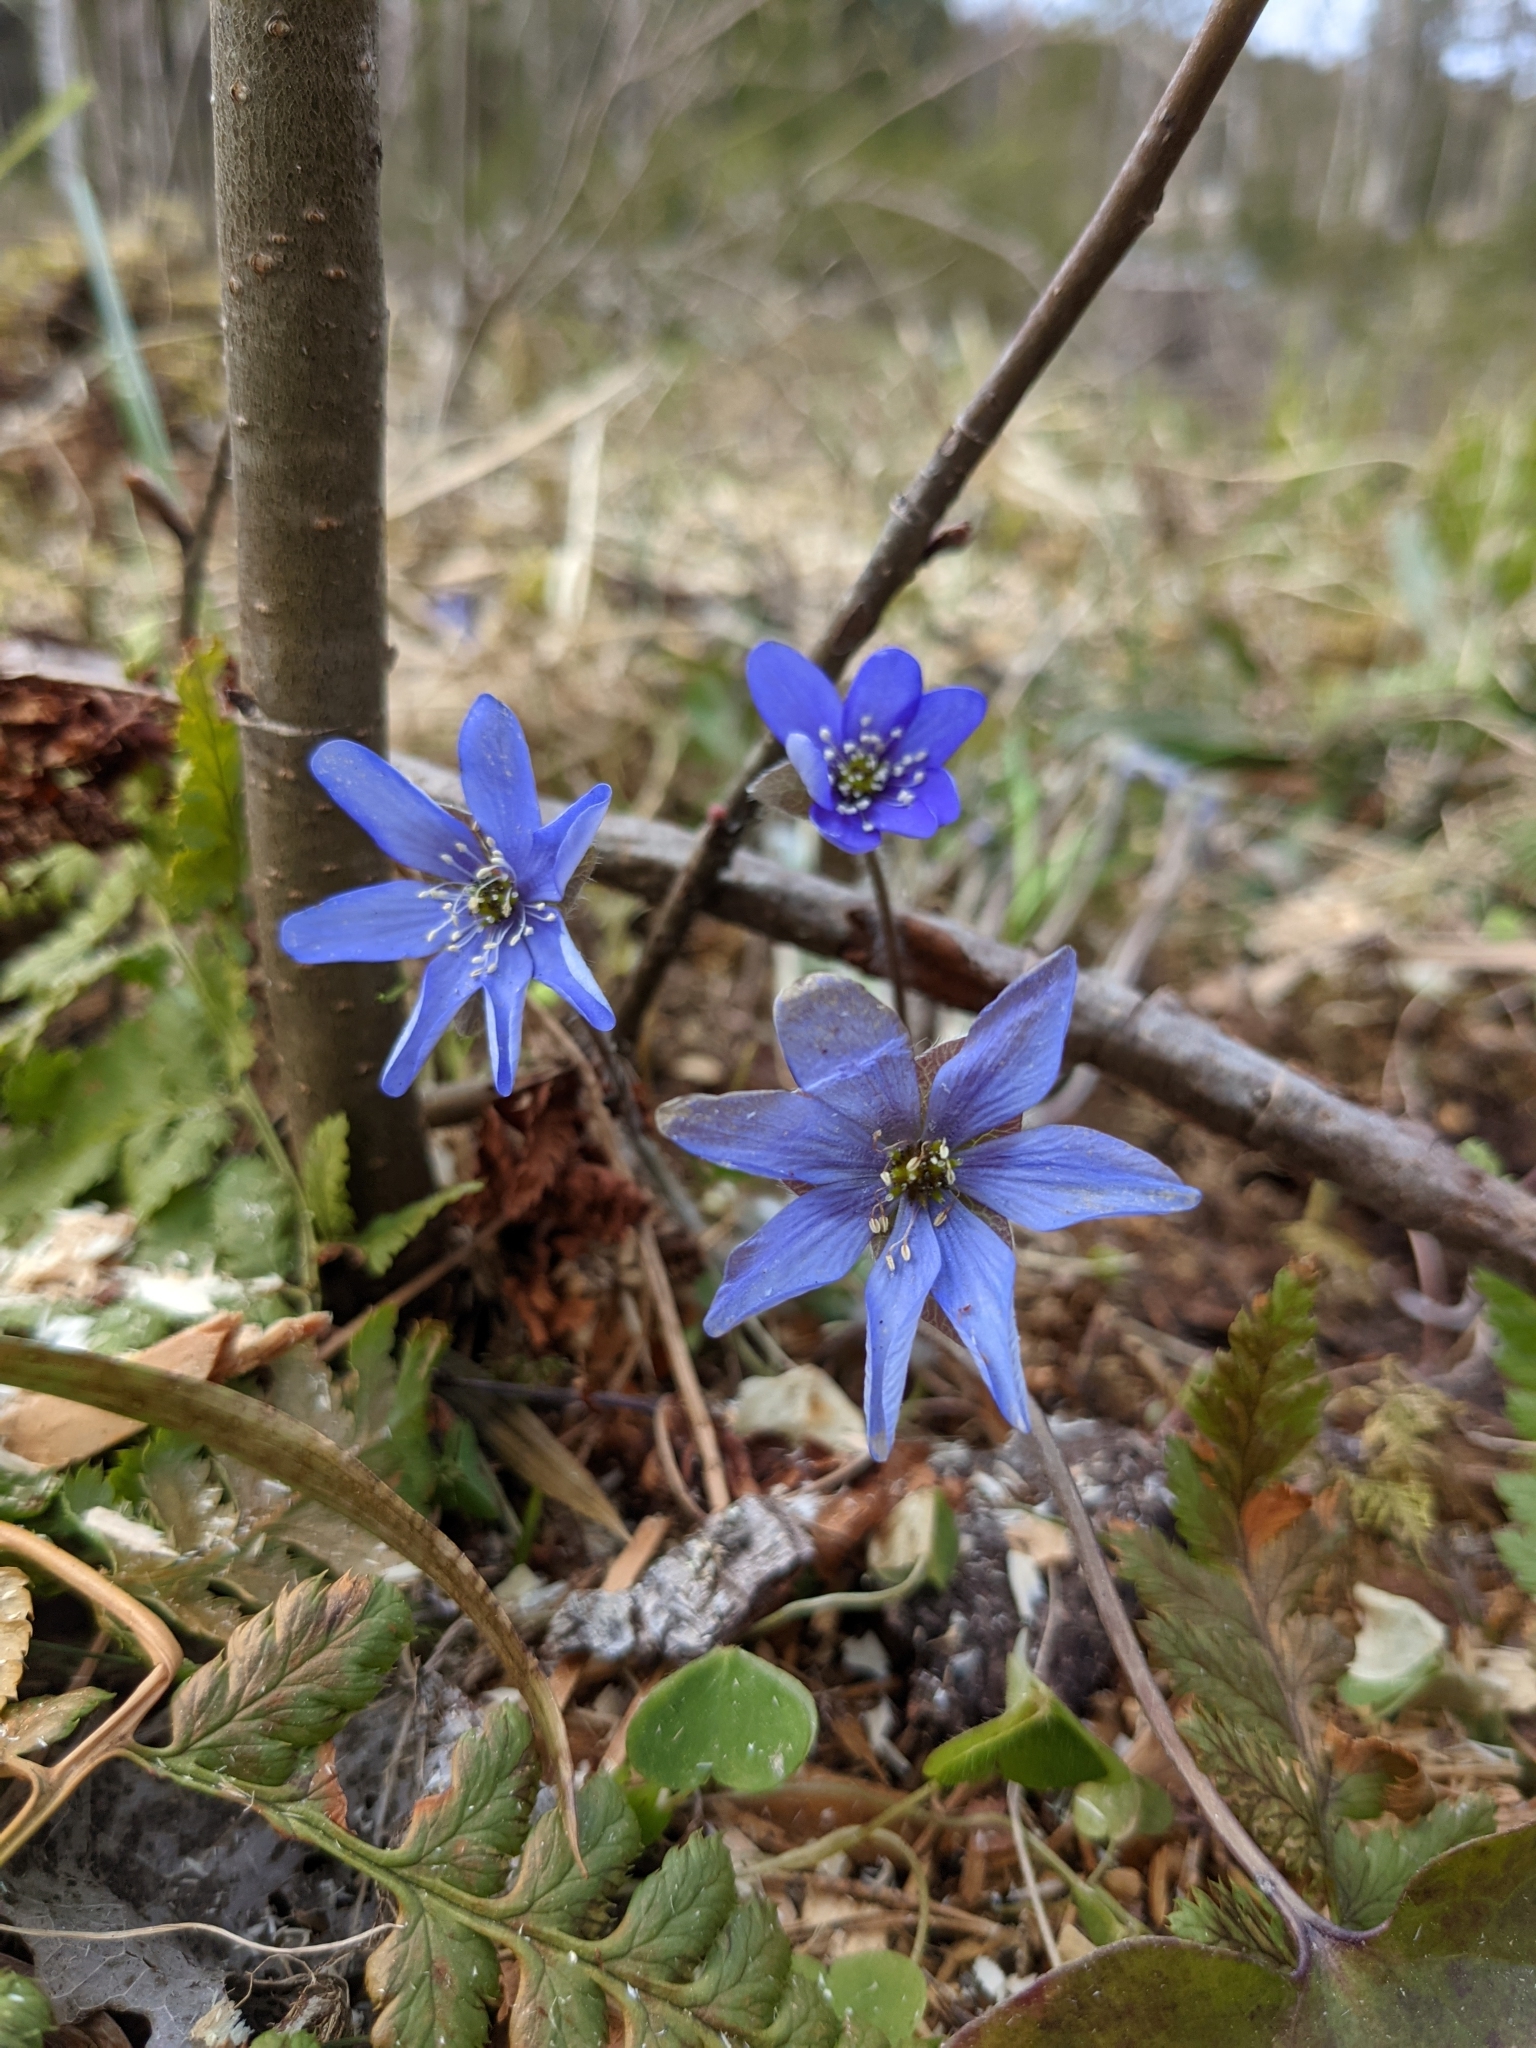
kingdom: Plantae
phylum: Tracheophyta
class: Magnoliopsida
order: Ranunculales
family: Ranunculaceae
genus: Hepatica
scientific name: Hepatica nobilis
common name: Liverleaf
